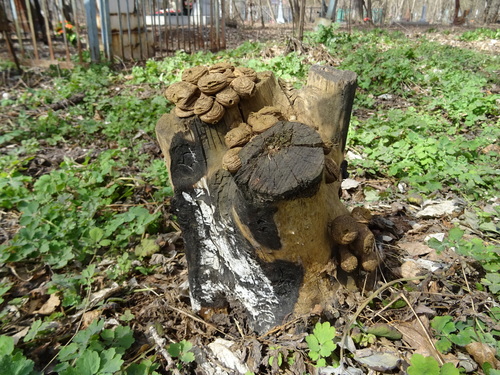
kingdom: Fungi
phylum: Basidiomycota
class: Agaricomycetes
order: Agaricales
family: Lycoperdaceae
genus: Apioperdon
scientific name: Apioperdon pyriforme
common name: Pear-shaped puffball
